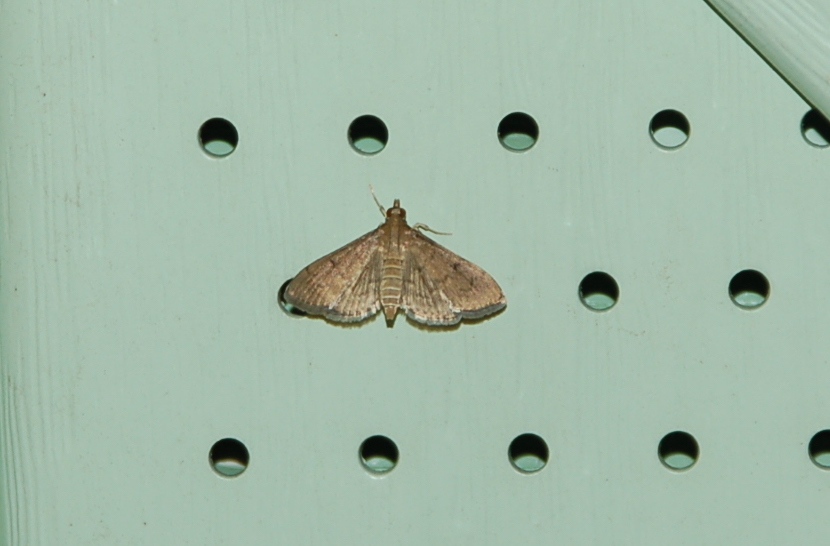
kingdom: Animalia
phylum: Arthropoda
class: Insecta
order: Lepidoptera
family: Crambidae
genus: Herpetogramma
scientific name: Herpetogramma phaeopteralis
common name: Dusky herpetogramma moth
